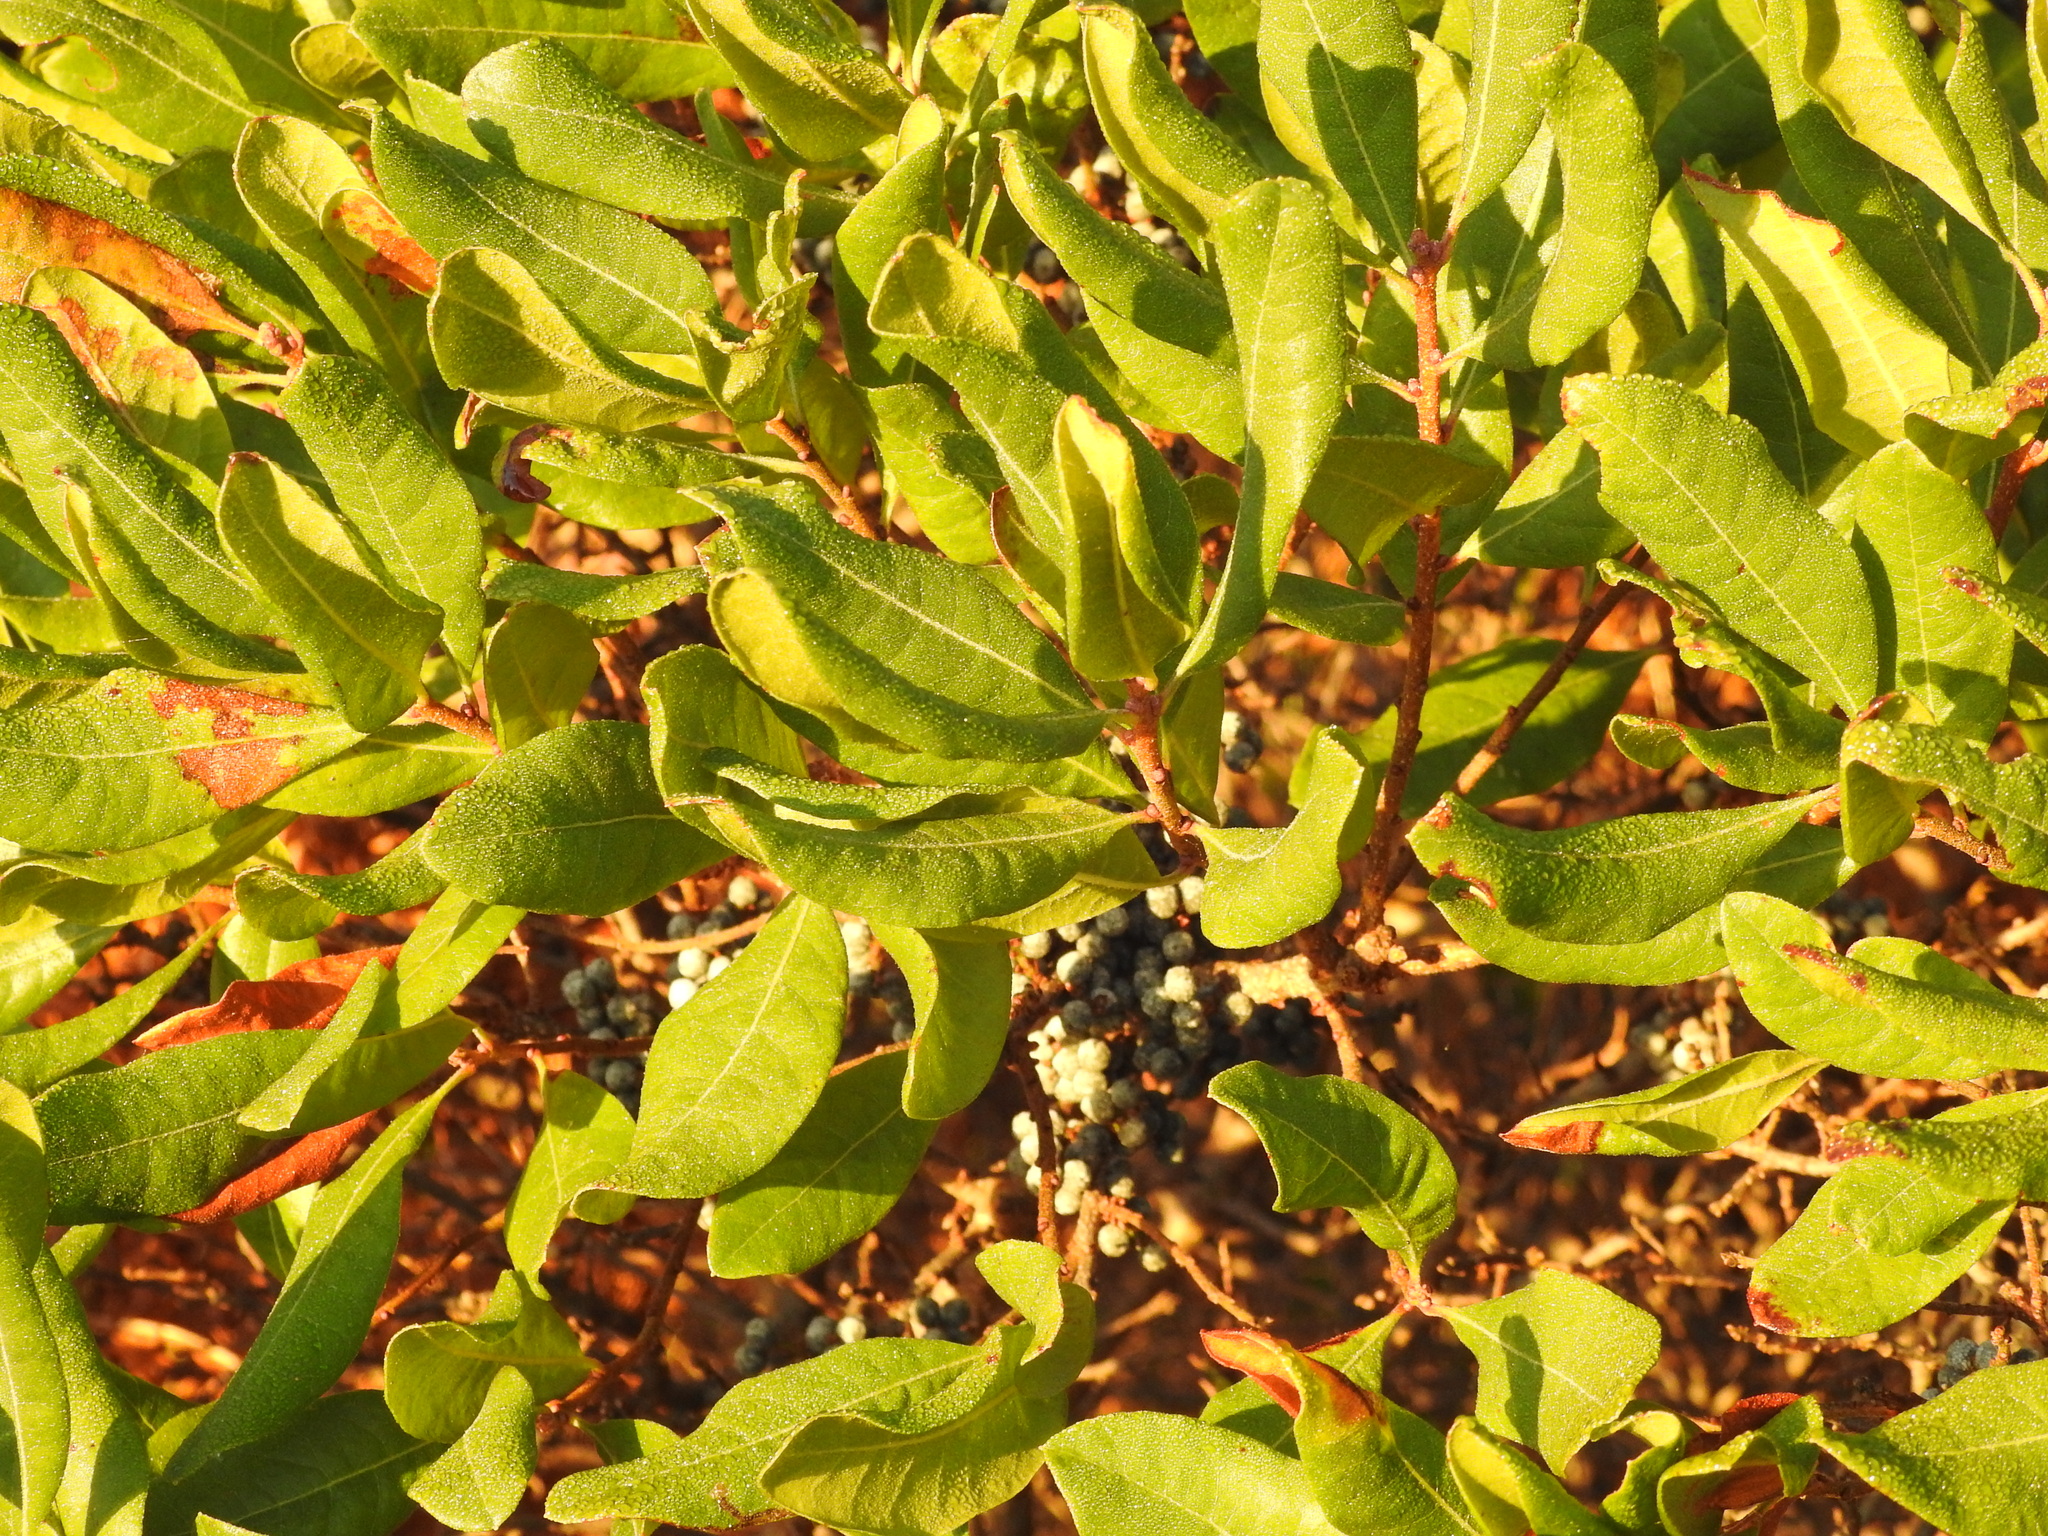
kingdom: Plantae
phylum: Tracheophyta
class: Magnoliopsida
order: Fagales
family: Myricaceae
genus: Morella
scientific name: Morella pensylvanica
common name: Northern bayberry
